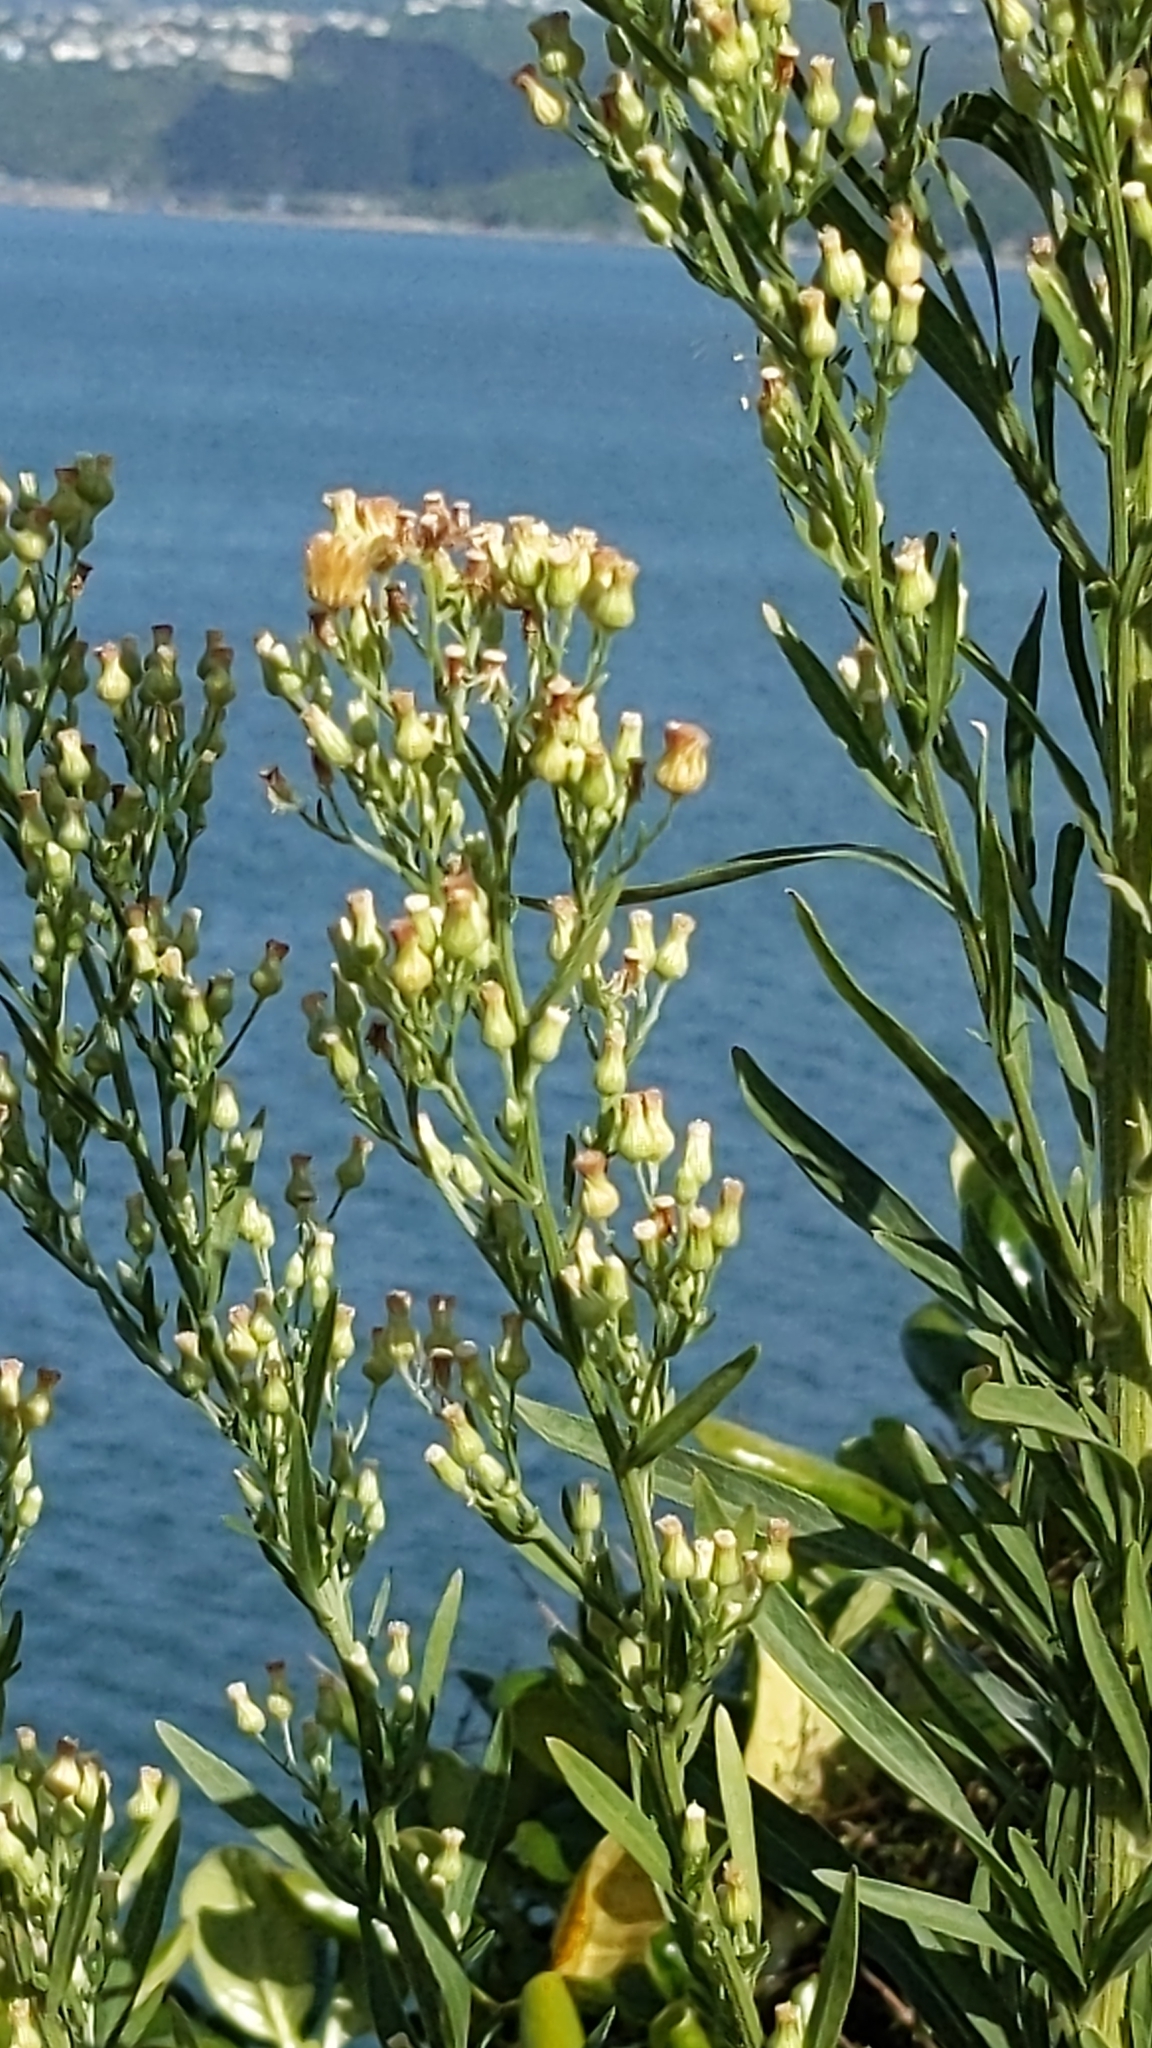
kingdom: Plantae
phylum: Tracheophyta
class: Magnoliopsida
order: Asterales
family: Asteraceae
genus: Erigeron
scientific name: Erigeron sumatrensis
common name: Daisy
